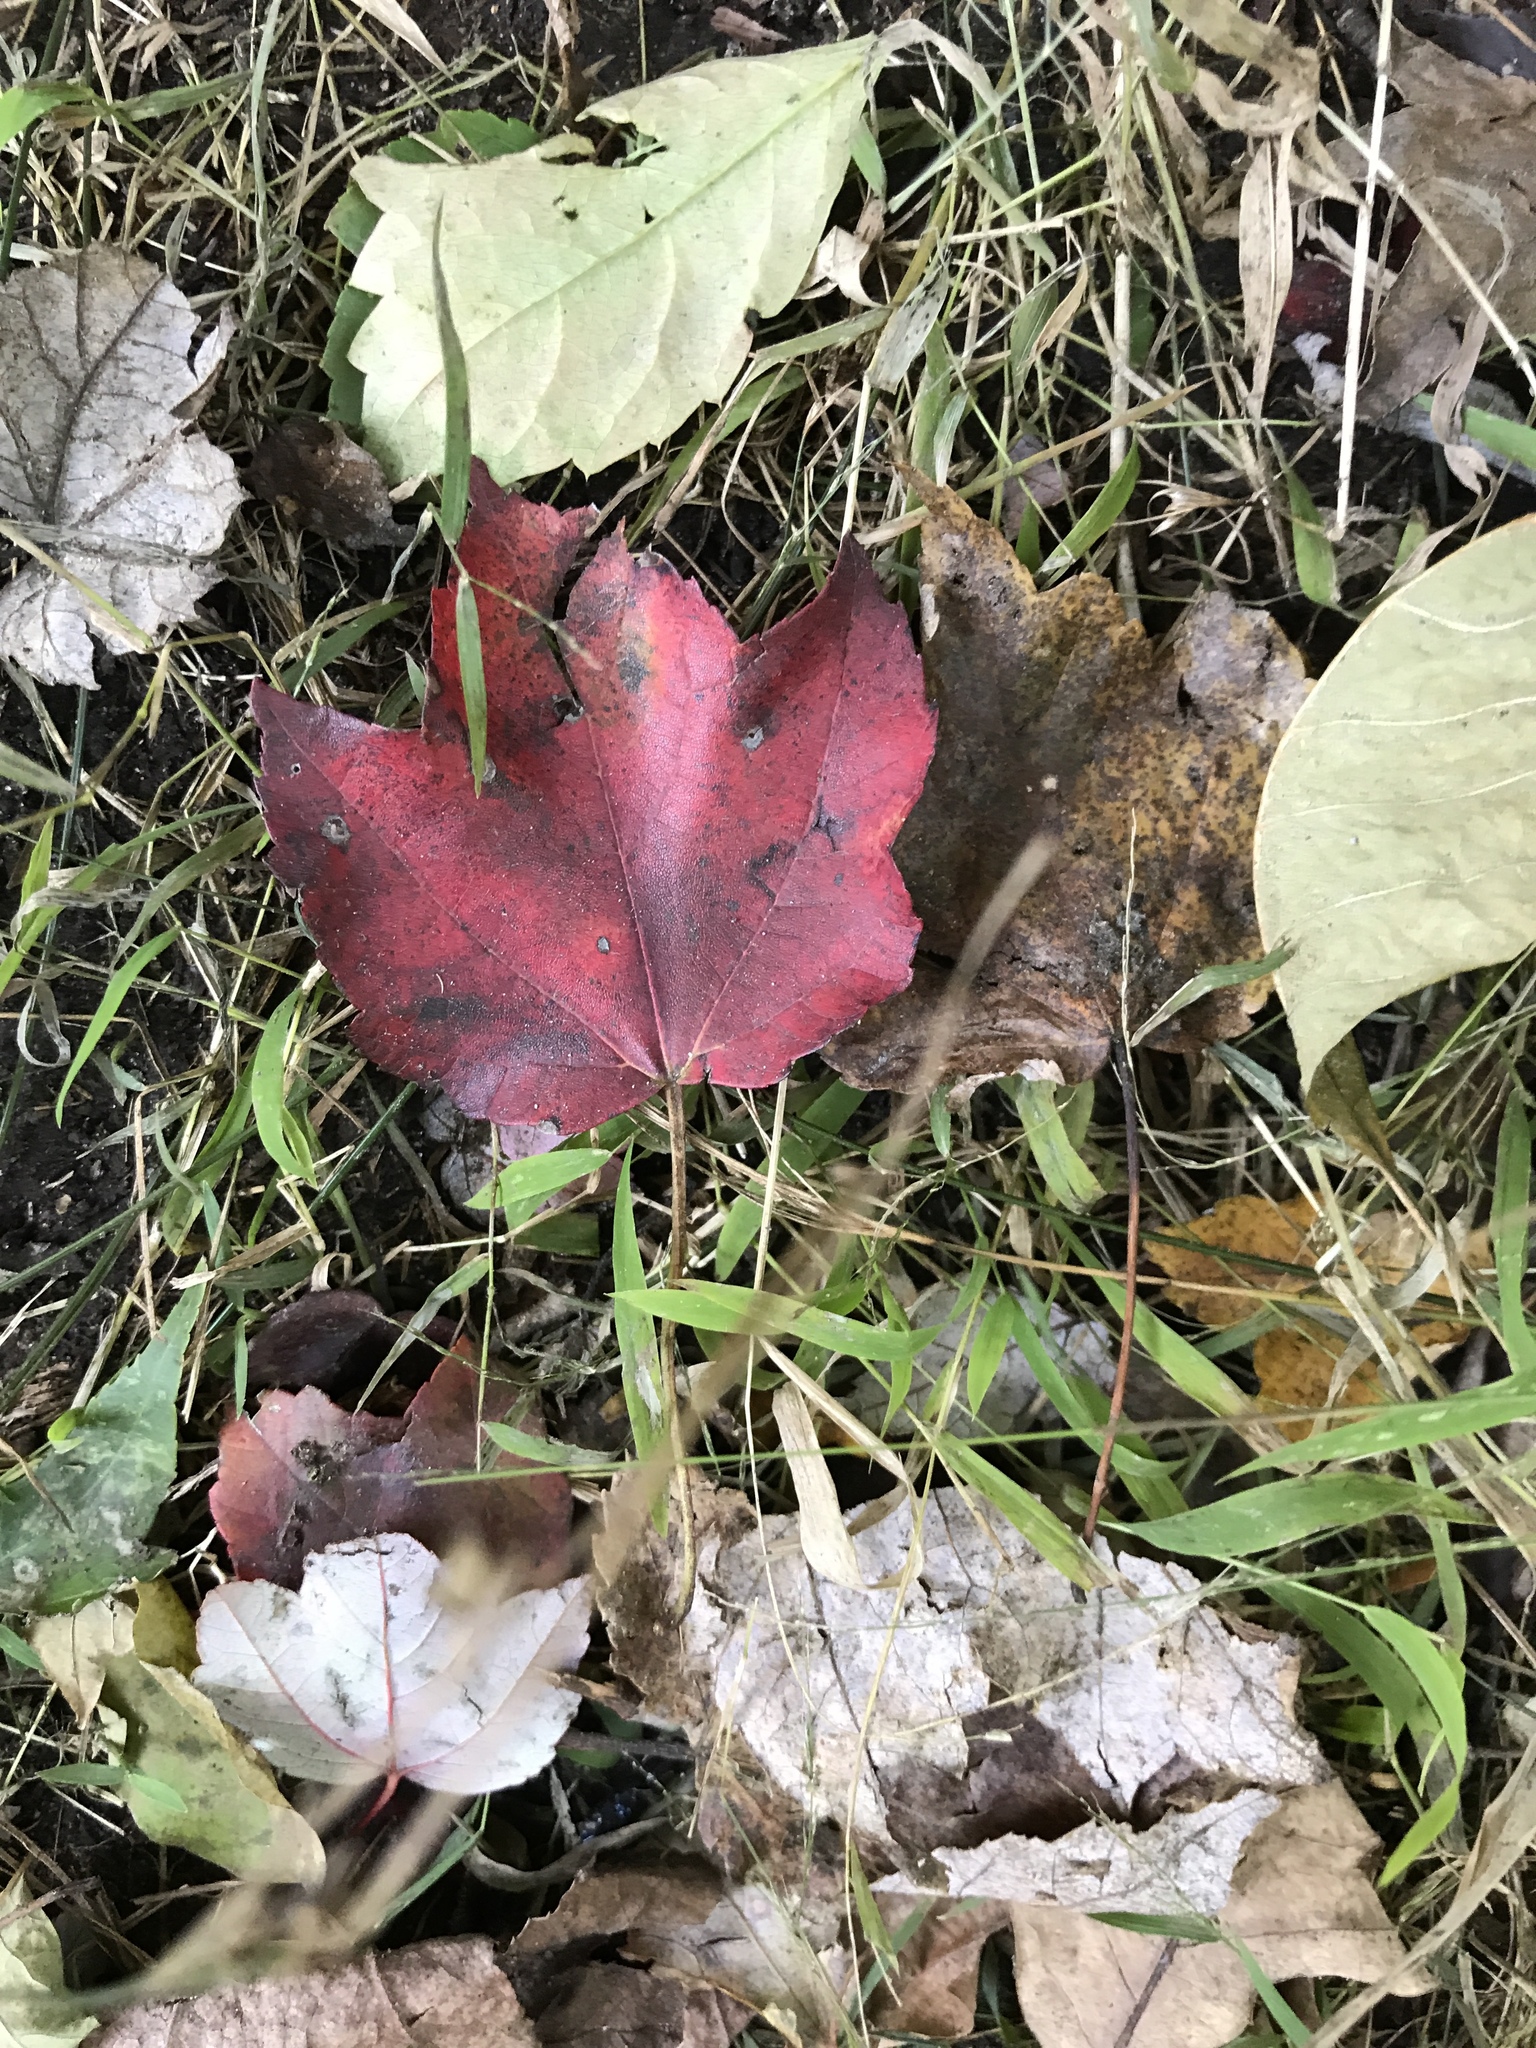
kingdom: Plantae
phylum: Tracheophyta
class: Magnoliopsida
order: Sapindales
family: Sapindaceae
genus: Acer
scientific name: Acer rubrum
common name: Red maple
